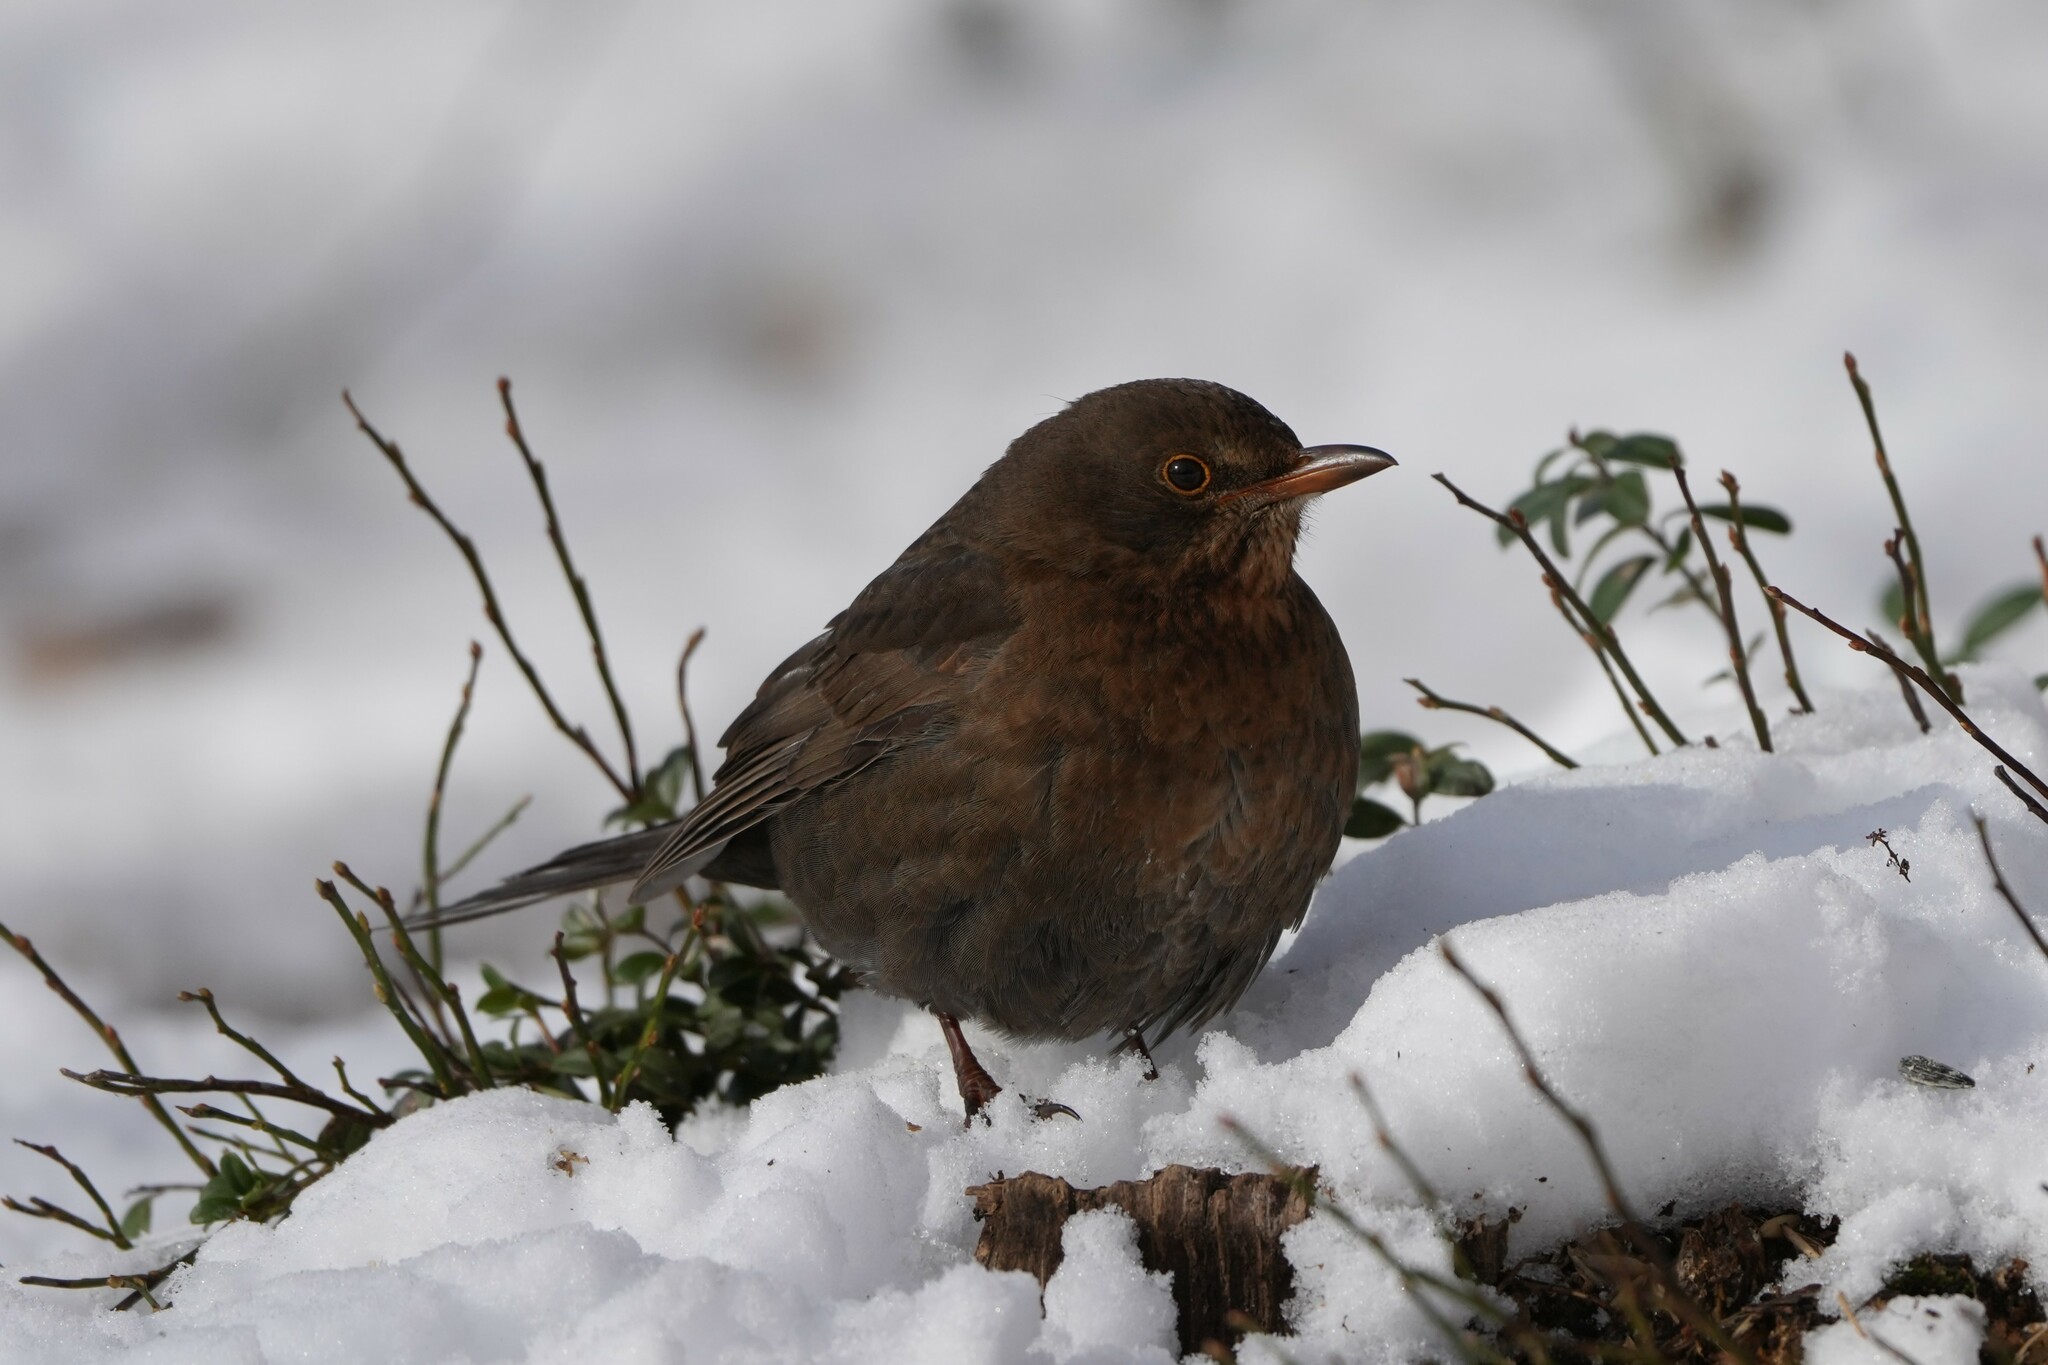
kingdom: Animalia
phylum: Chordata
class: Aves
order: Passeriformes
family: Turdidae
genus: Turdus
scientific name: Turdus merula
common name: Common blackbird
